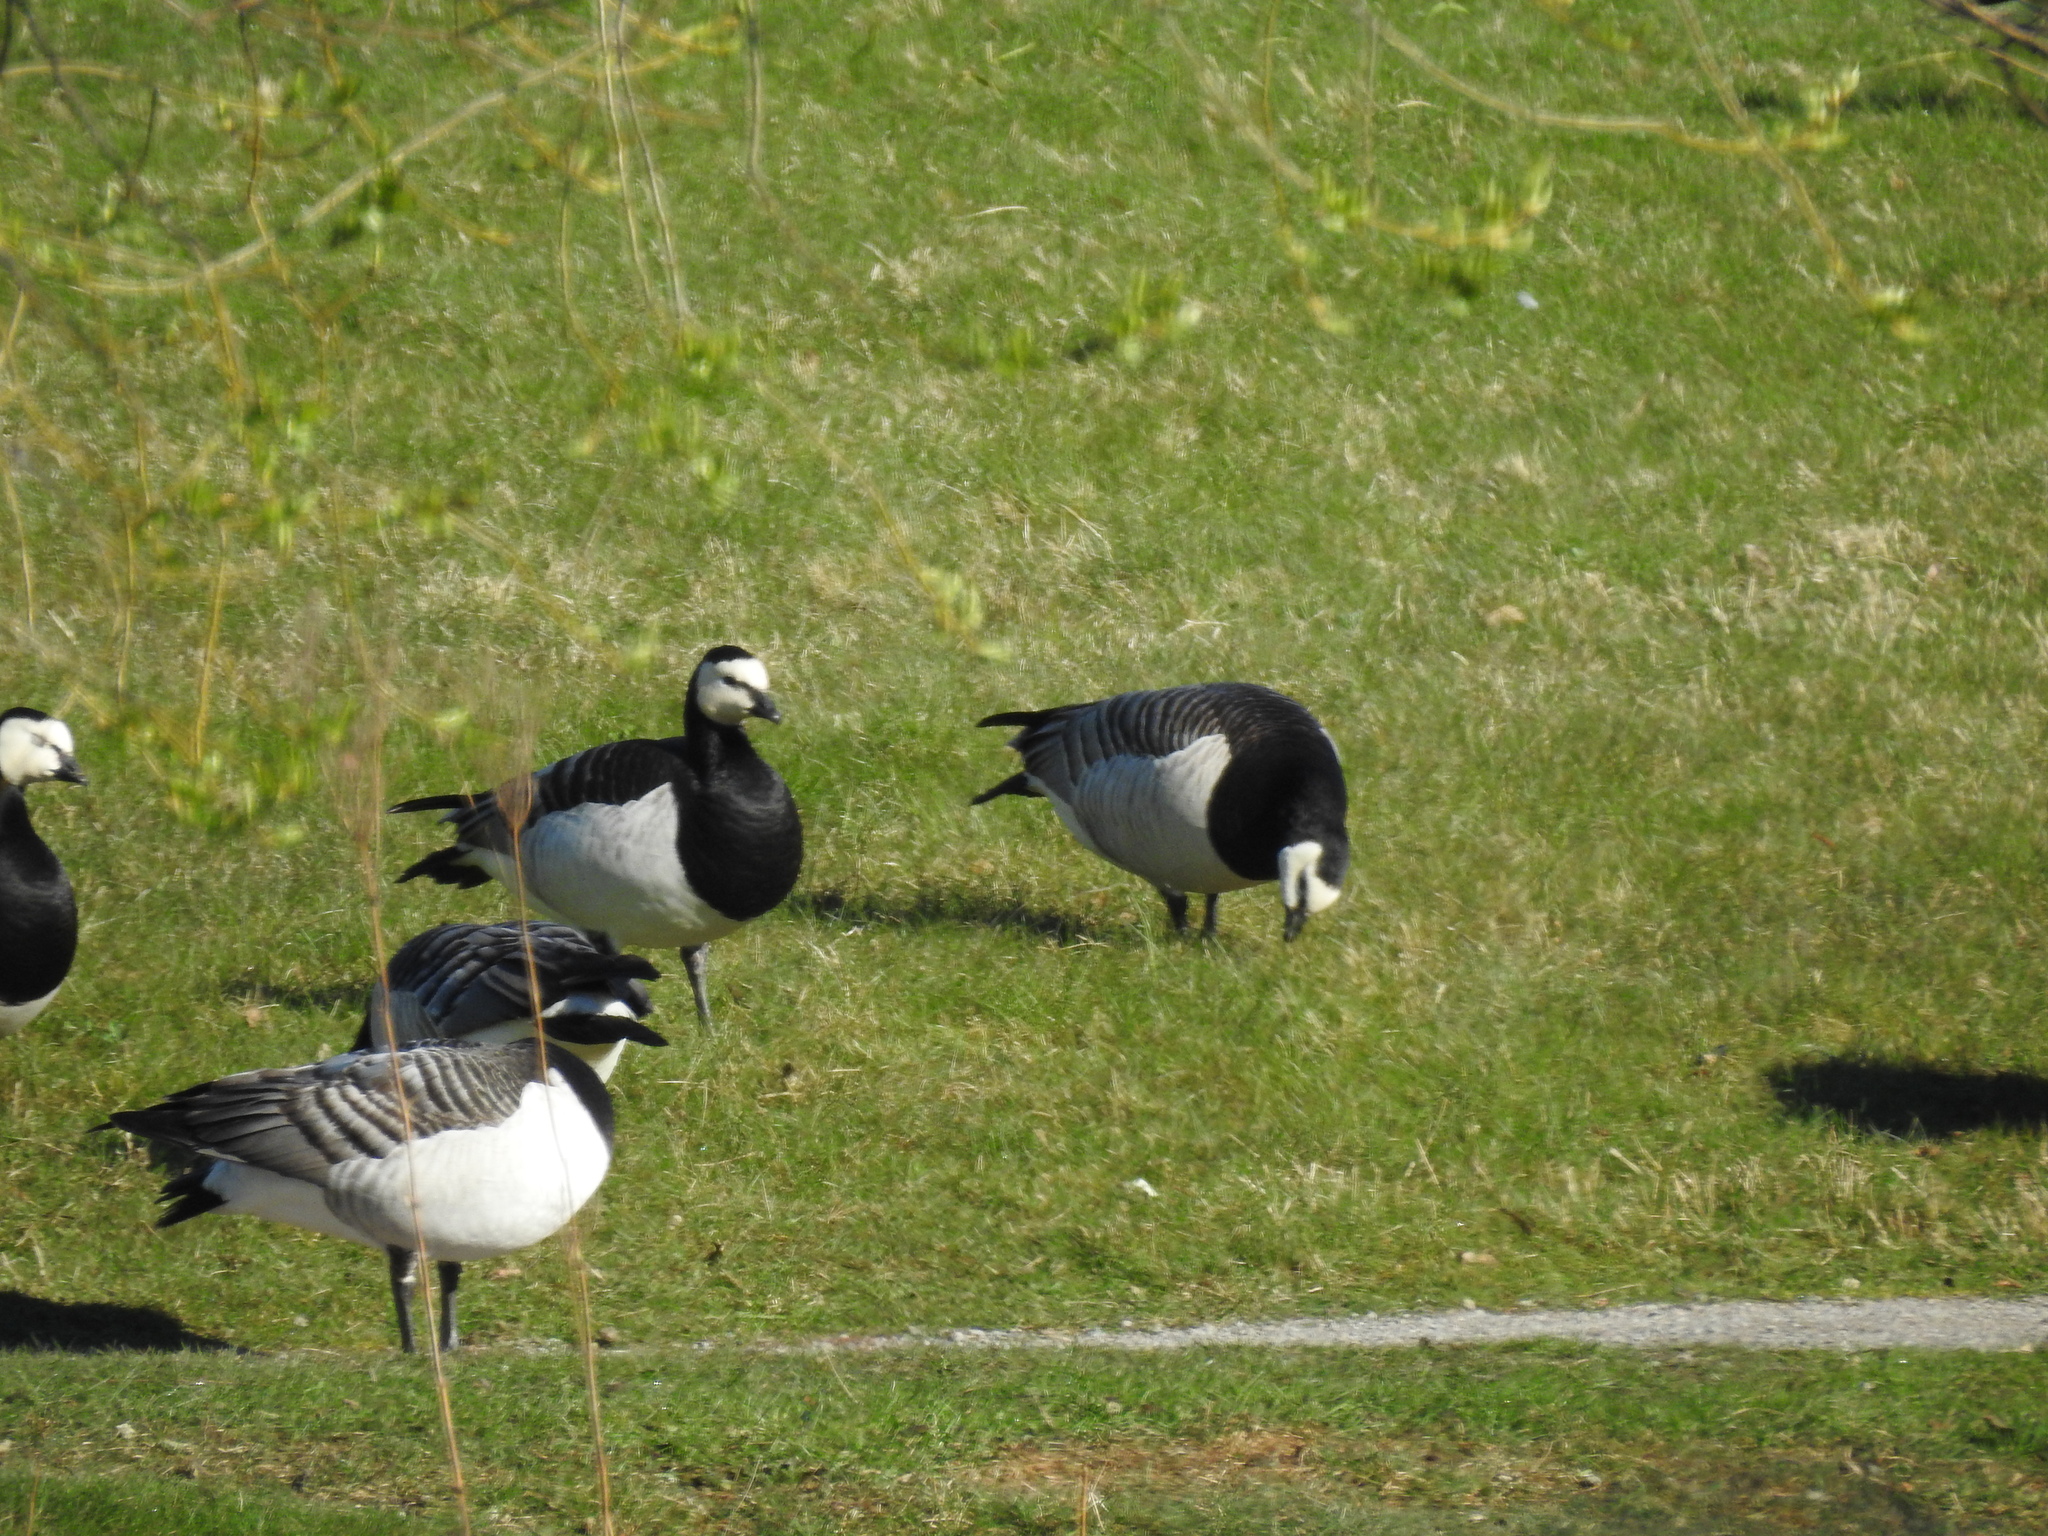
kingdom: Animalia
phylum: Chordata
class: Aves
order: Anseriformes
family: Anatidae
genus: Branta
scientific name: Branta leucopsis
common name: Barnacle goose
